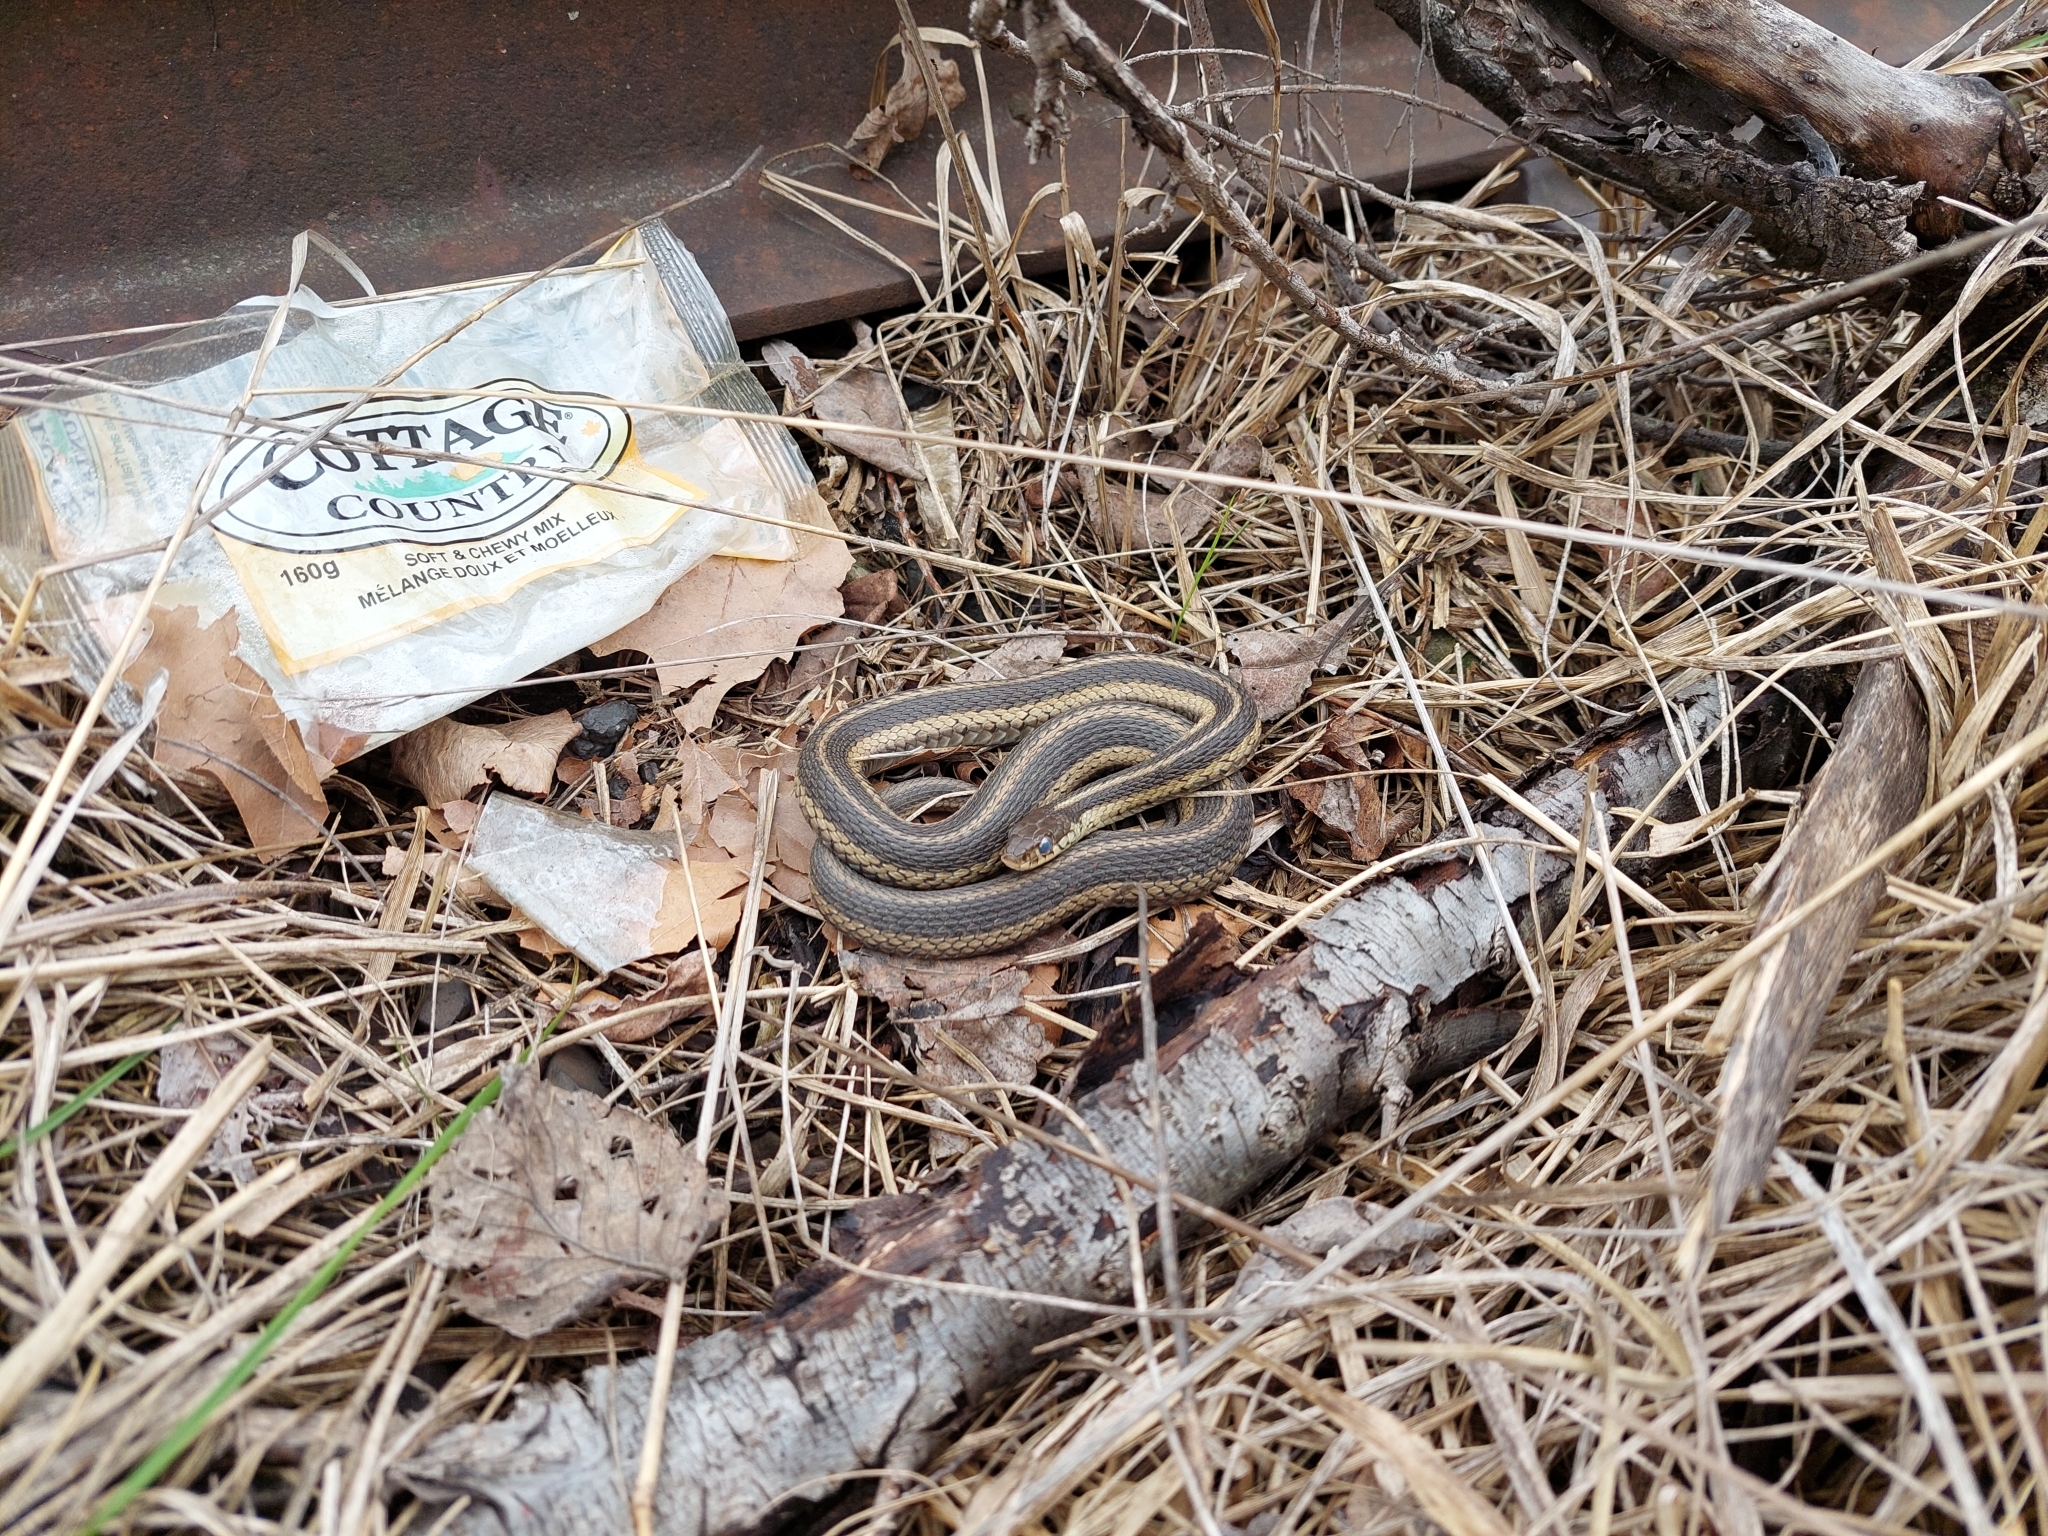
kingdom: Animalia
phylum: Chordata
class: Squamata
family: Colubridae
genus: Thamnophis
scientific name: Thamnophis sirtalis
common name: Common garter snake
